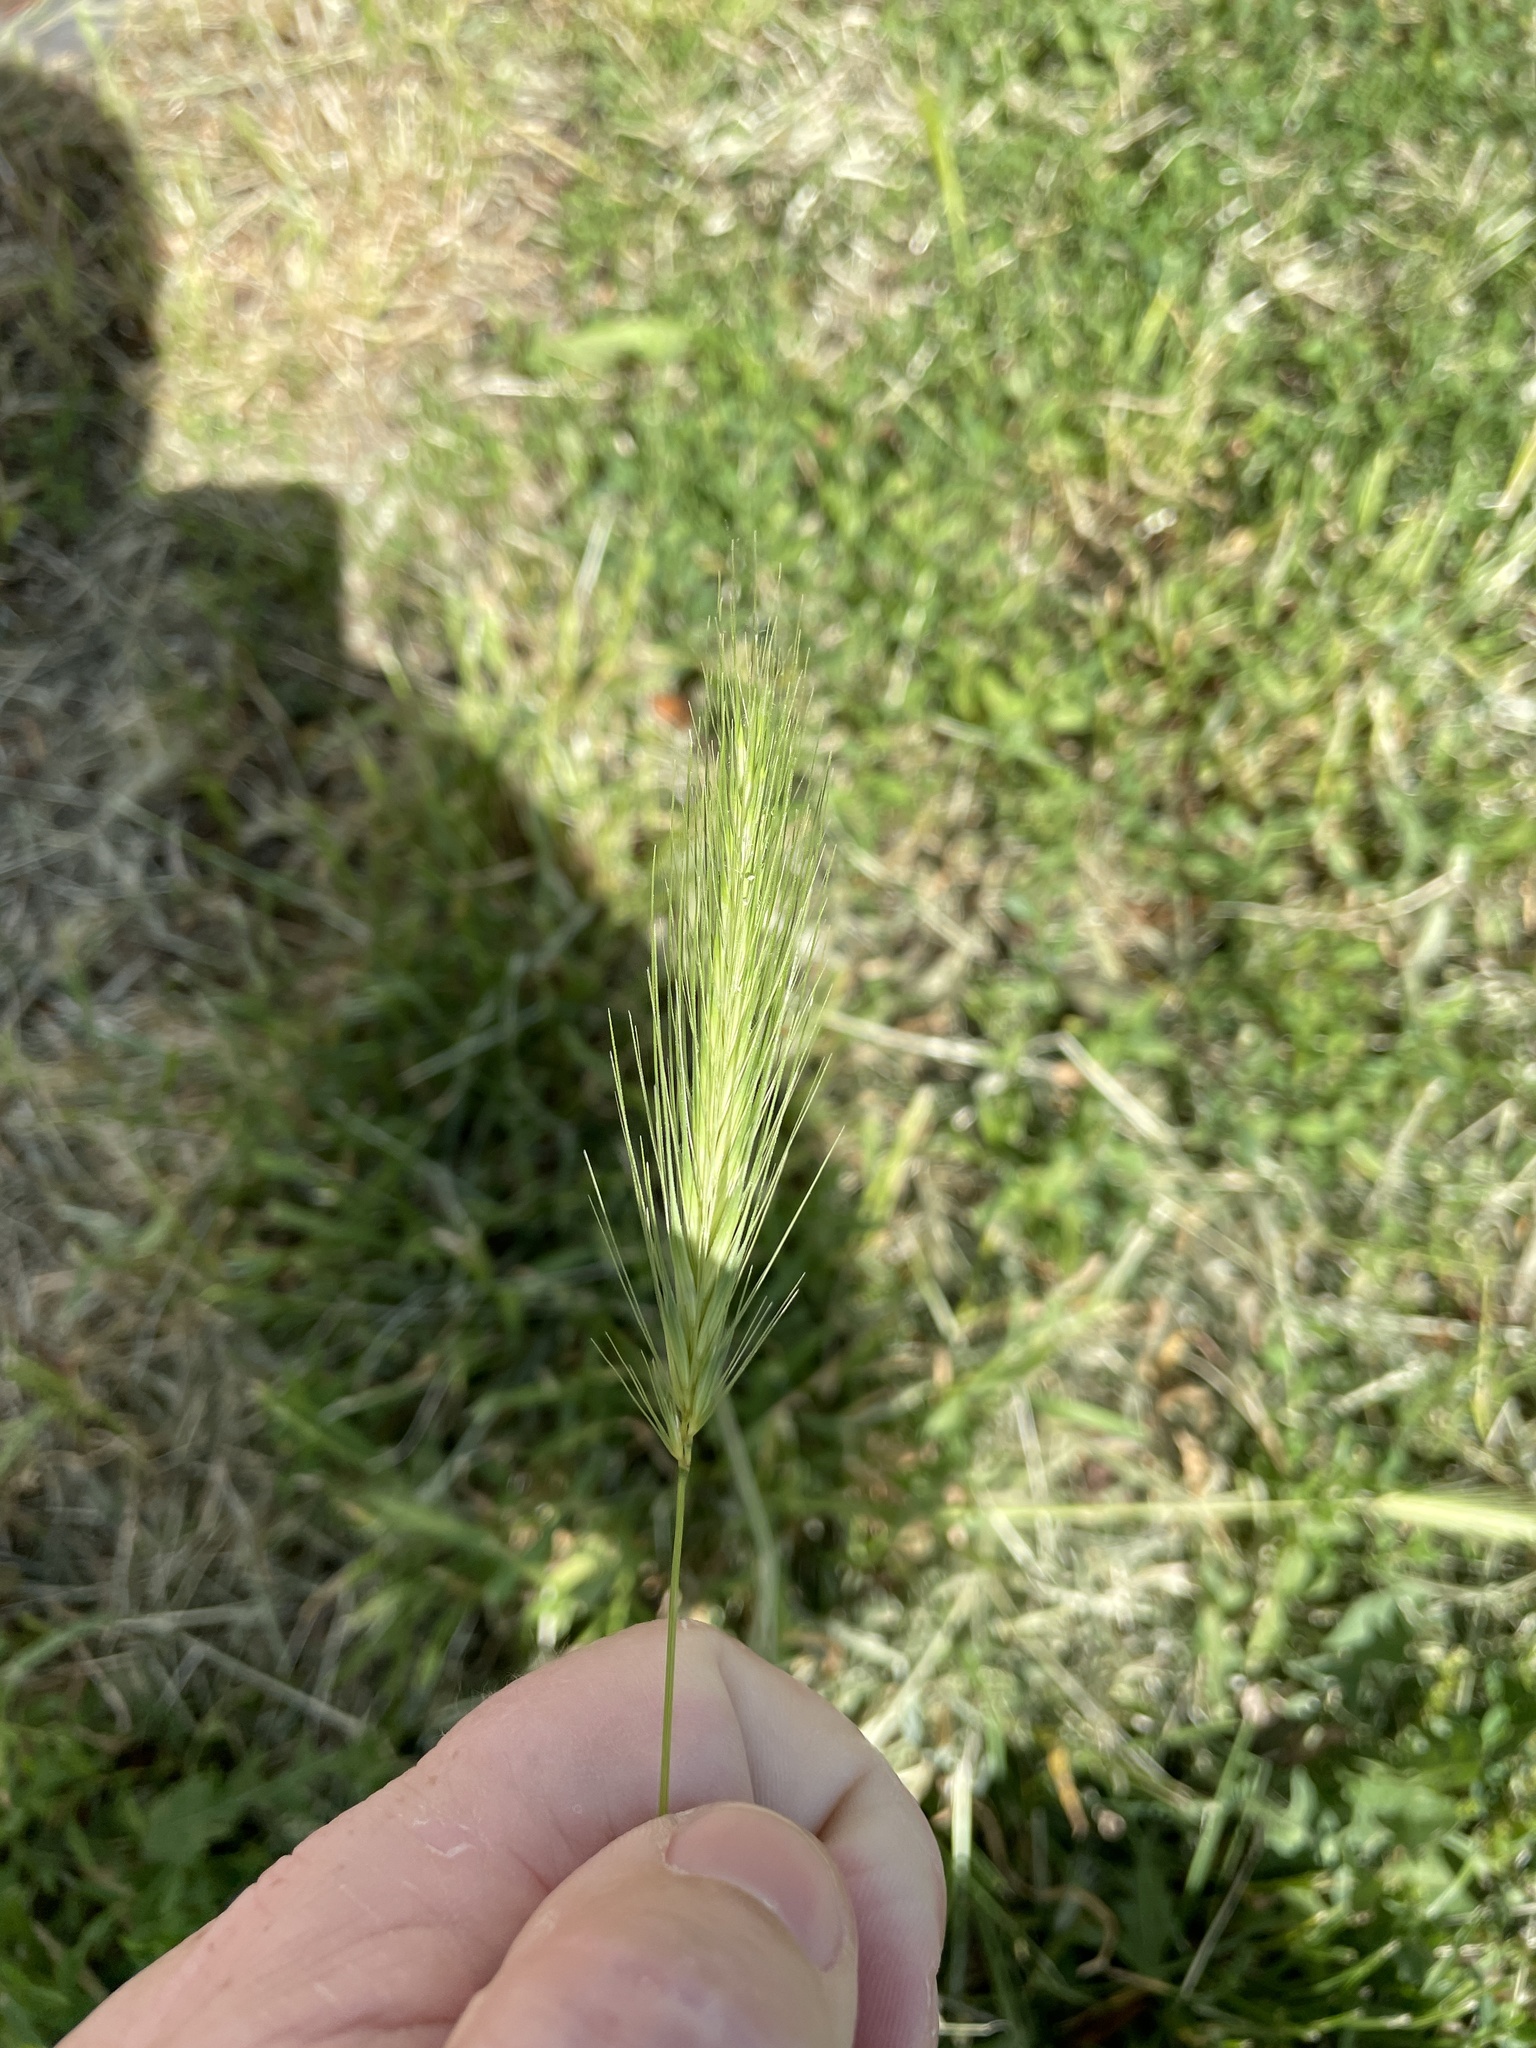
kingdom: Plantae
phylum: Tracheophyta
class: Liliopsida
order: Poales
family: Poaceae
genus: Hordeum
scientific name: Hordeum murinum
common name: Wall barley
